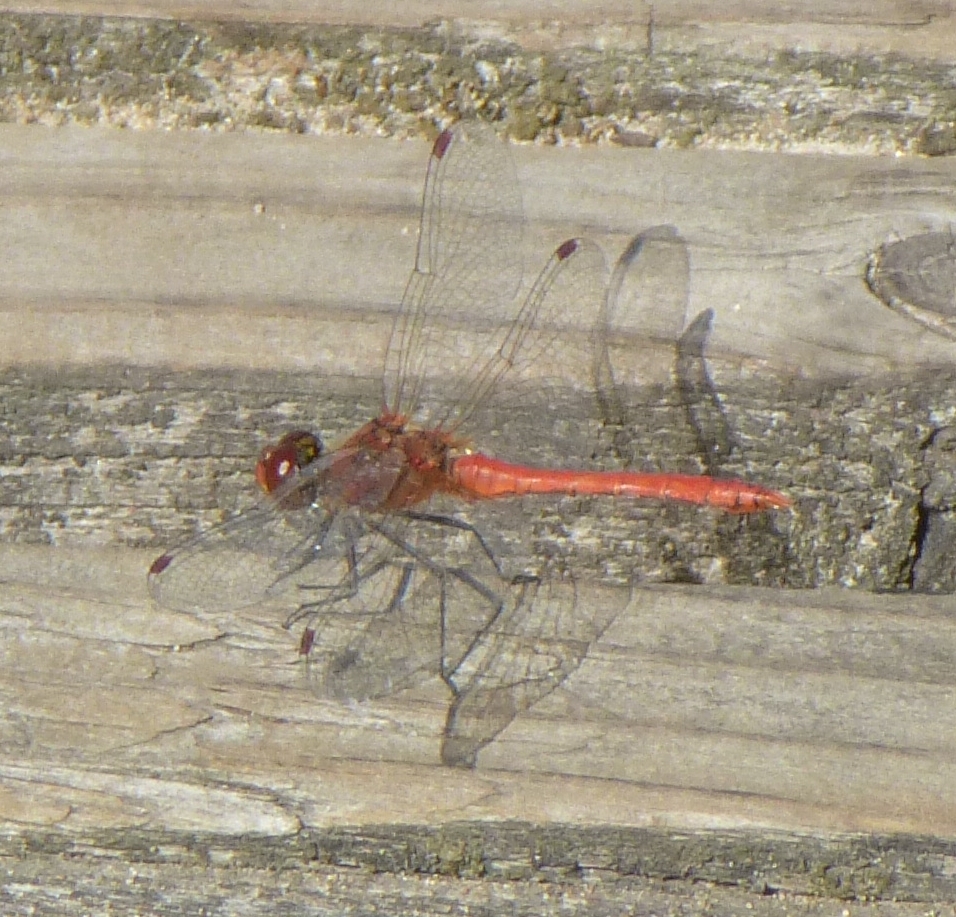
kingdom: Animalia
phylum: Arthropoda
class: Insecta
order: Odonata
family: Libellulidae
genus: Sympetrum
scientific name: Sympetrum sanguineum
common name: Ruddy darter
